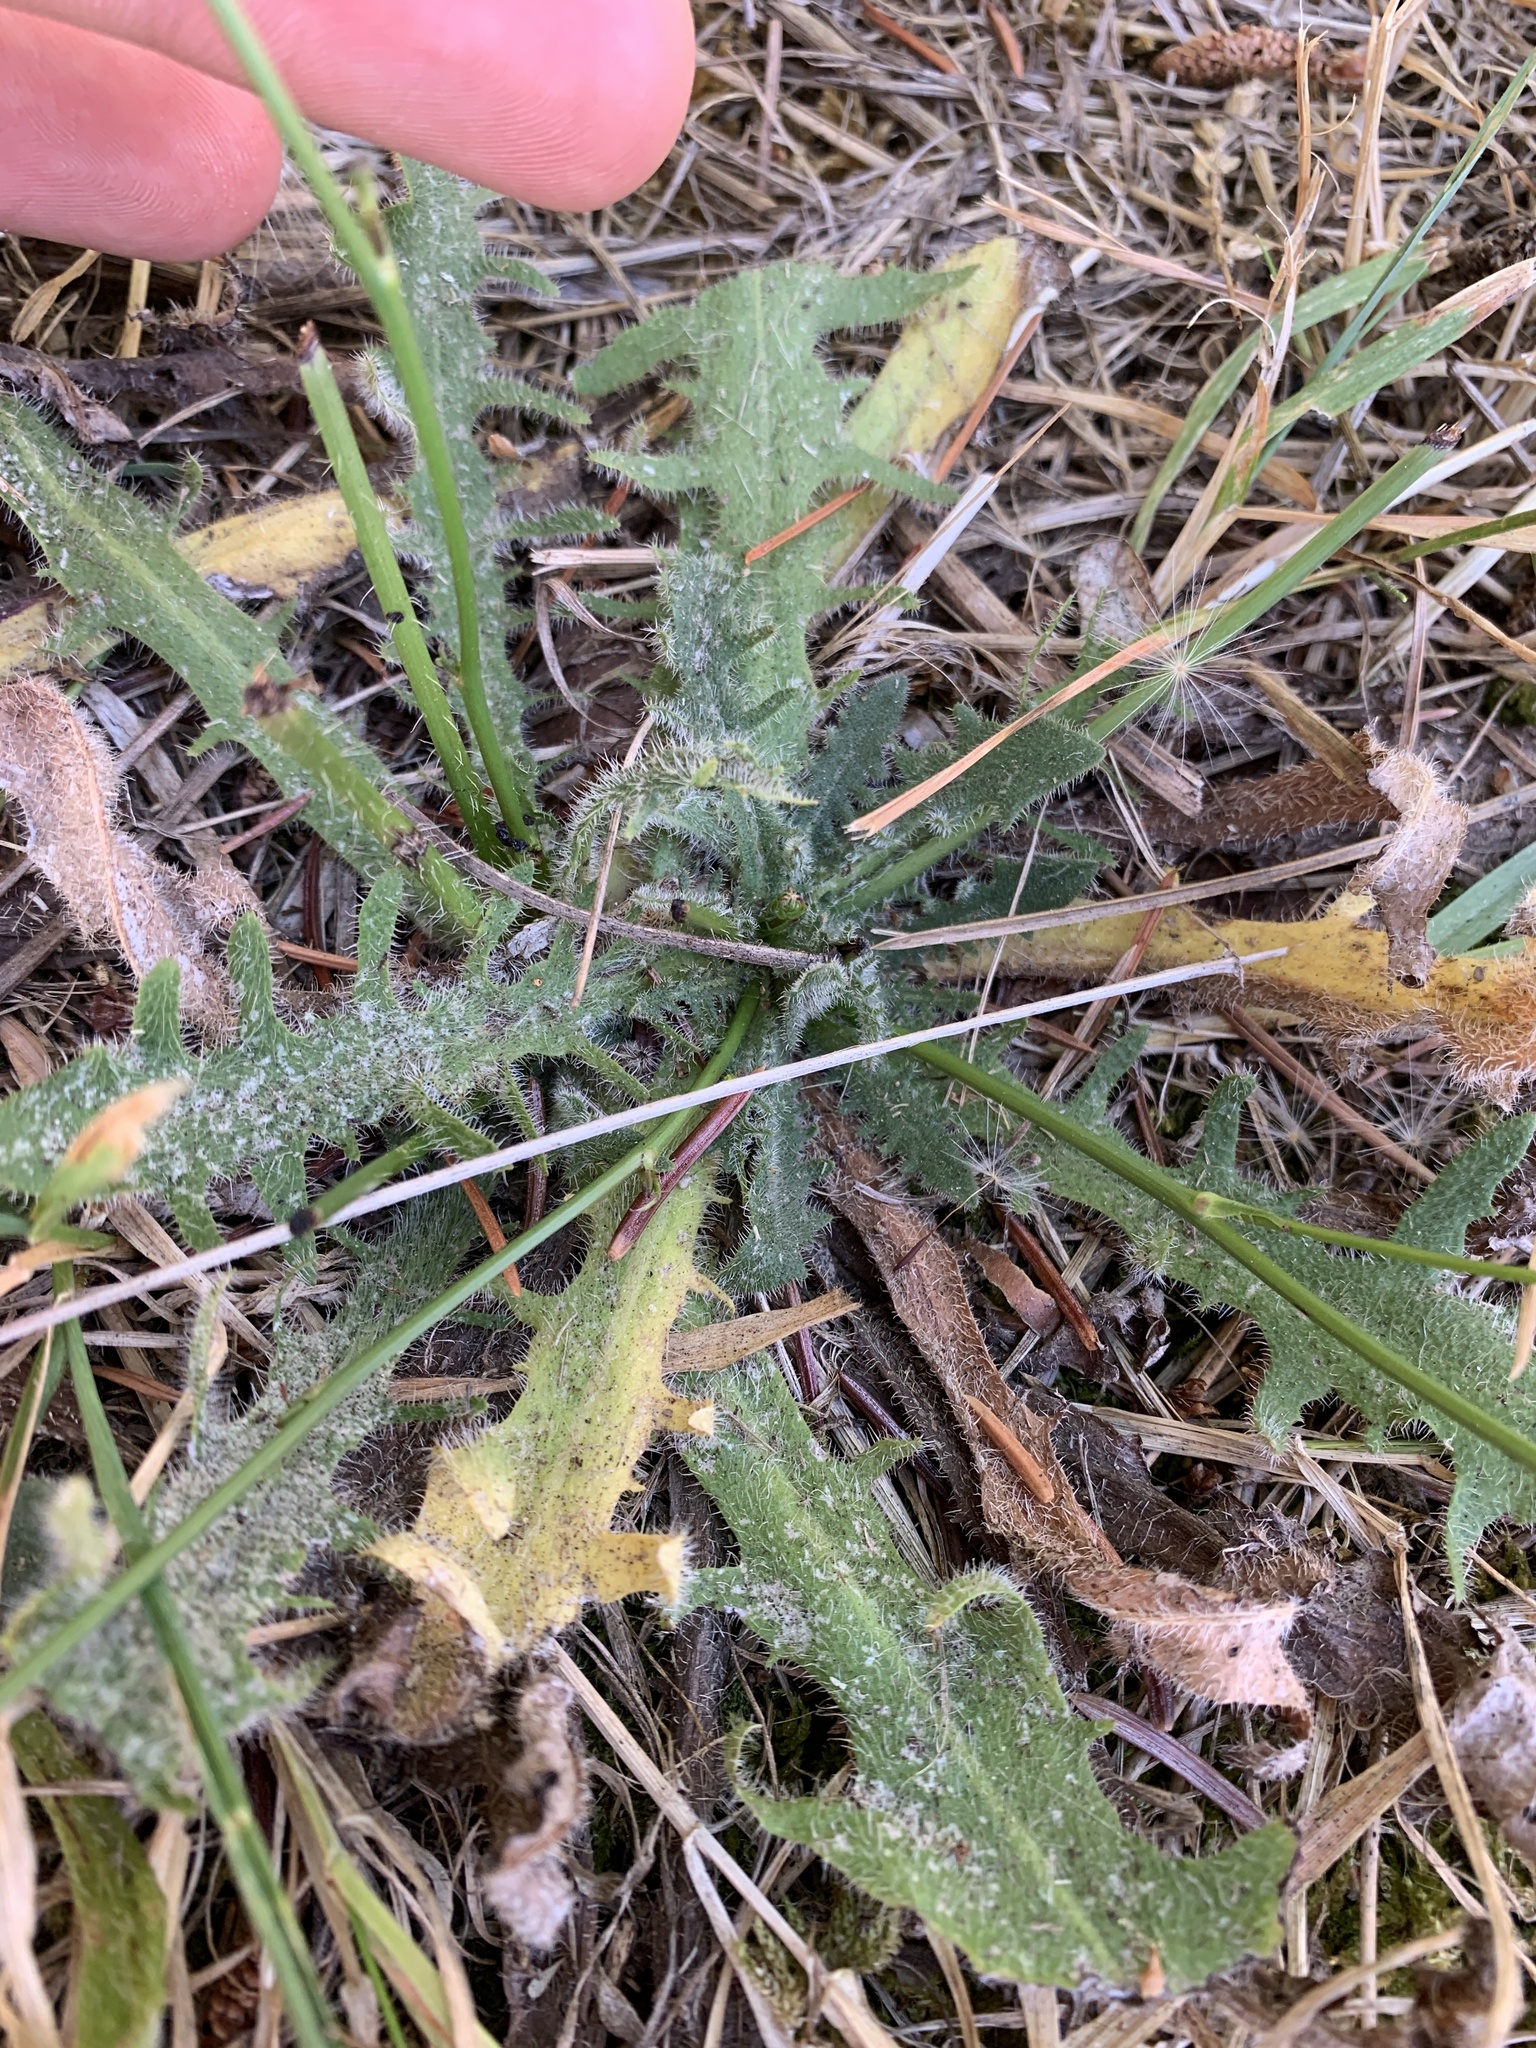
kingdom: Plantae
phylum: Tracheophyta
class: Magnoliopsida
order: Asterales
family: Asteraceae
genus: Hypochaeris
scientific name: Hypochaeris radicata
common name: Flatweed
